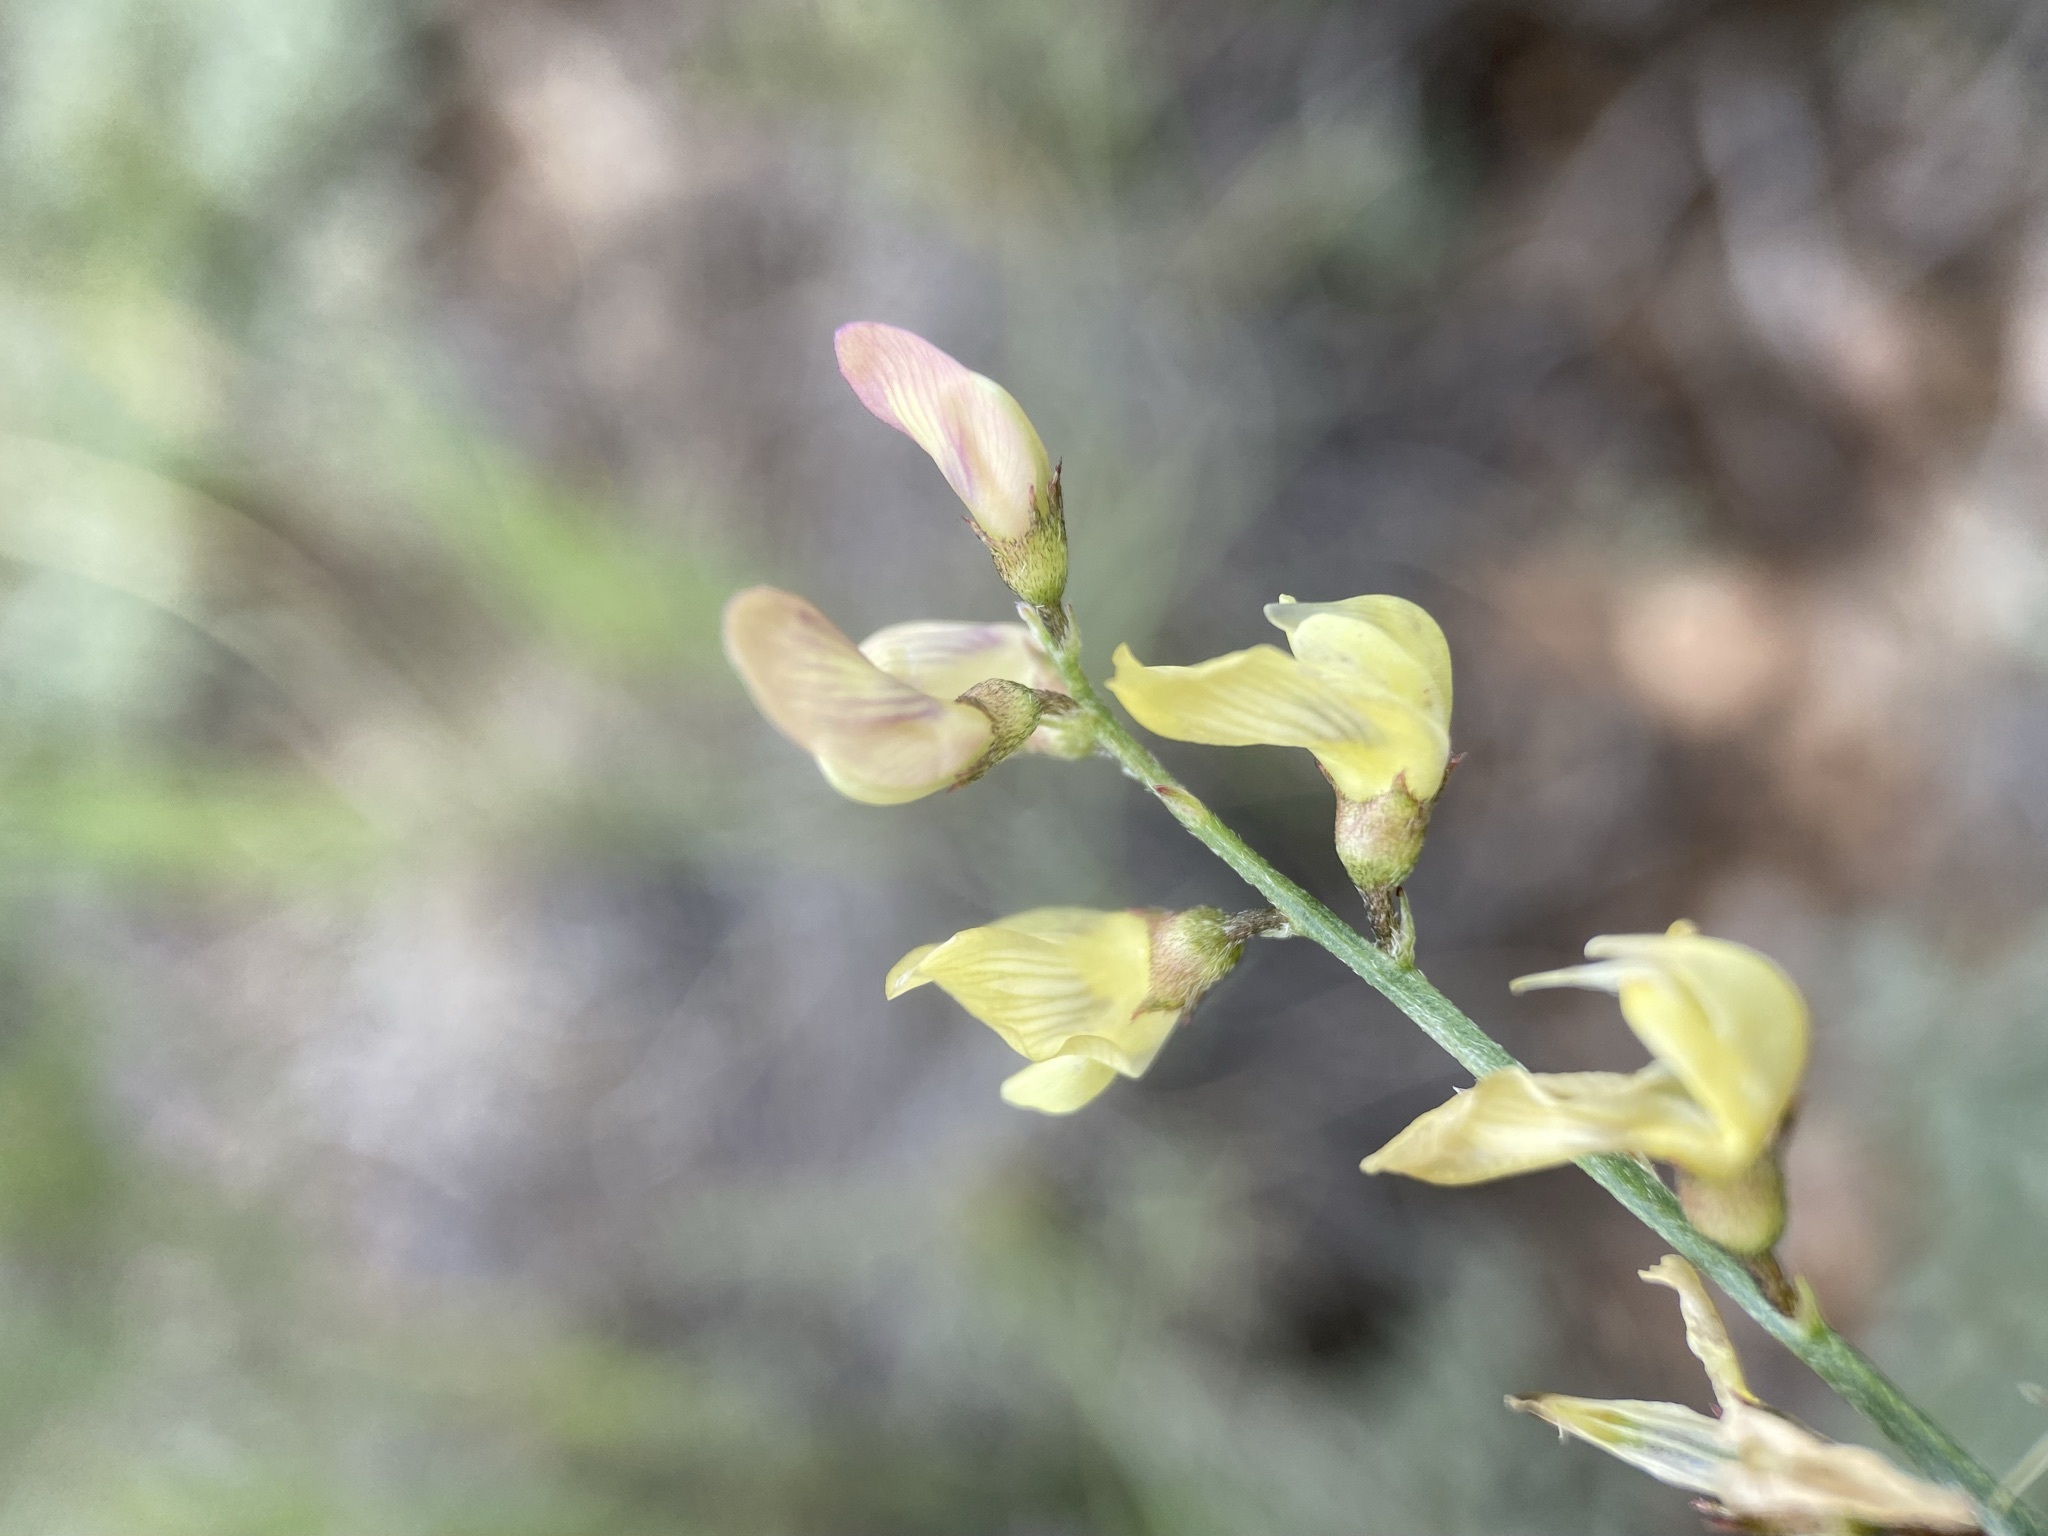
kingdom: Plantae
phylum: Tracheophyta
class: Magnoliopsida
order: Fabales
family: Fabaceae
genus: Astragalus
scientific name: Astragalus tenellus
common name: Pulse milk-vetch
